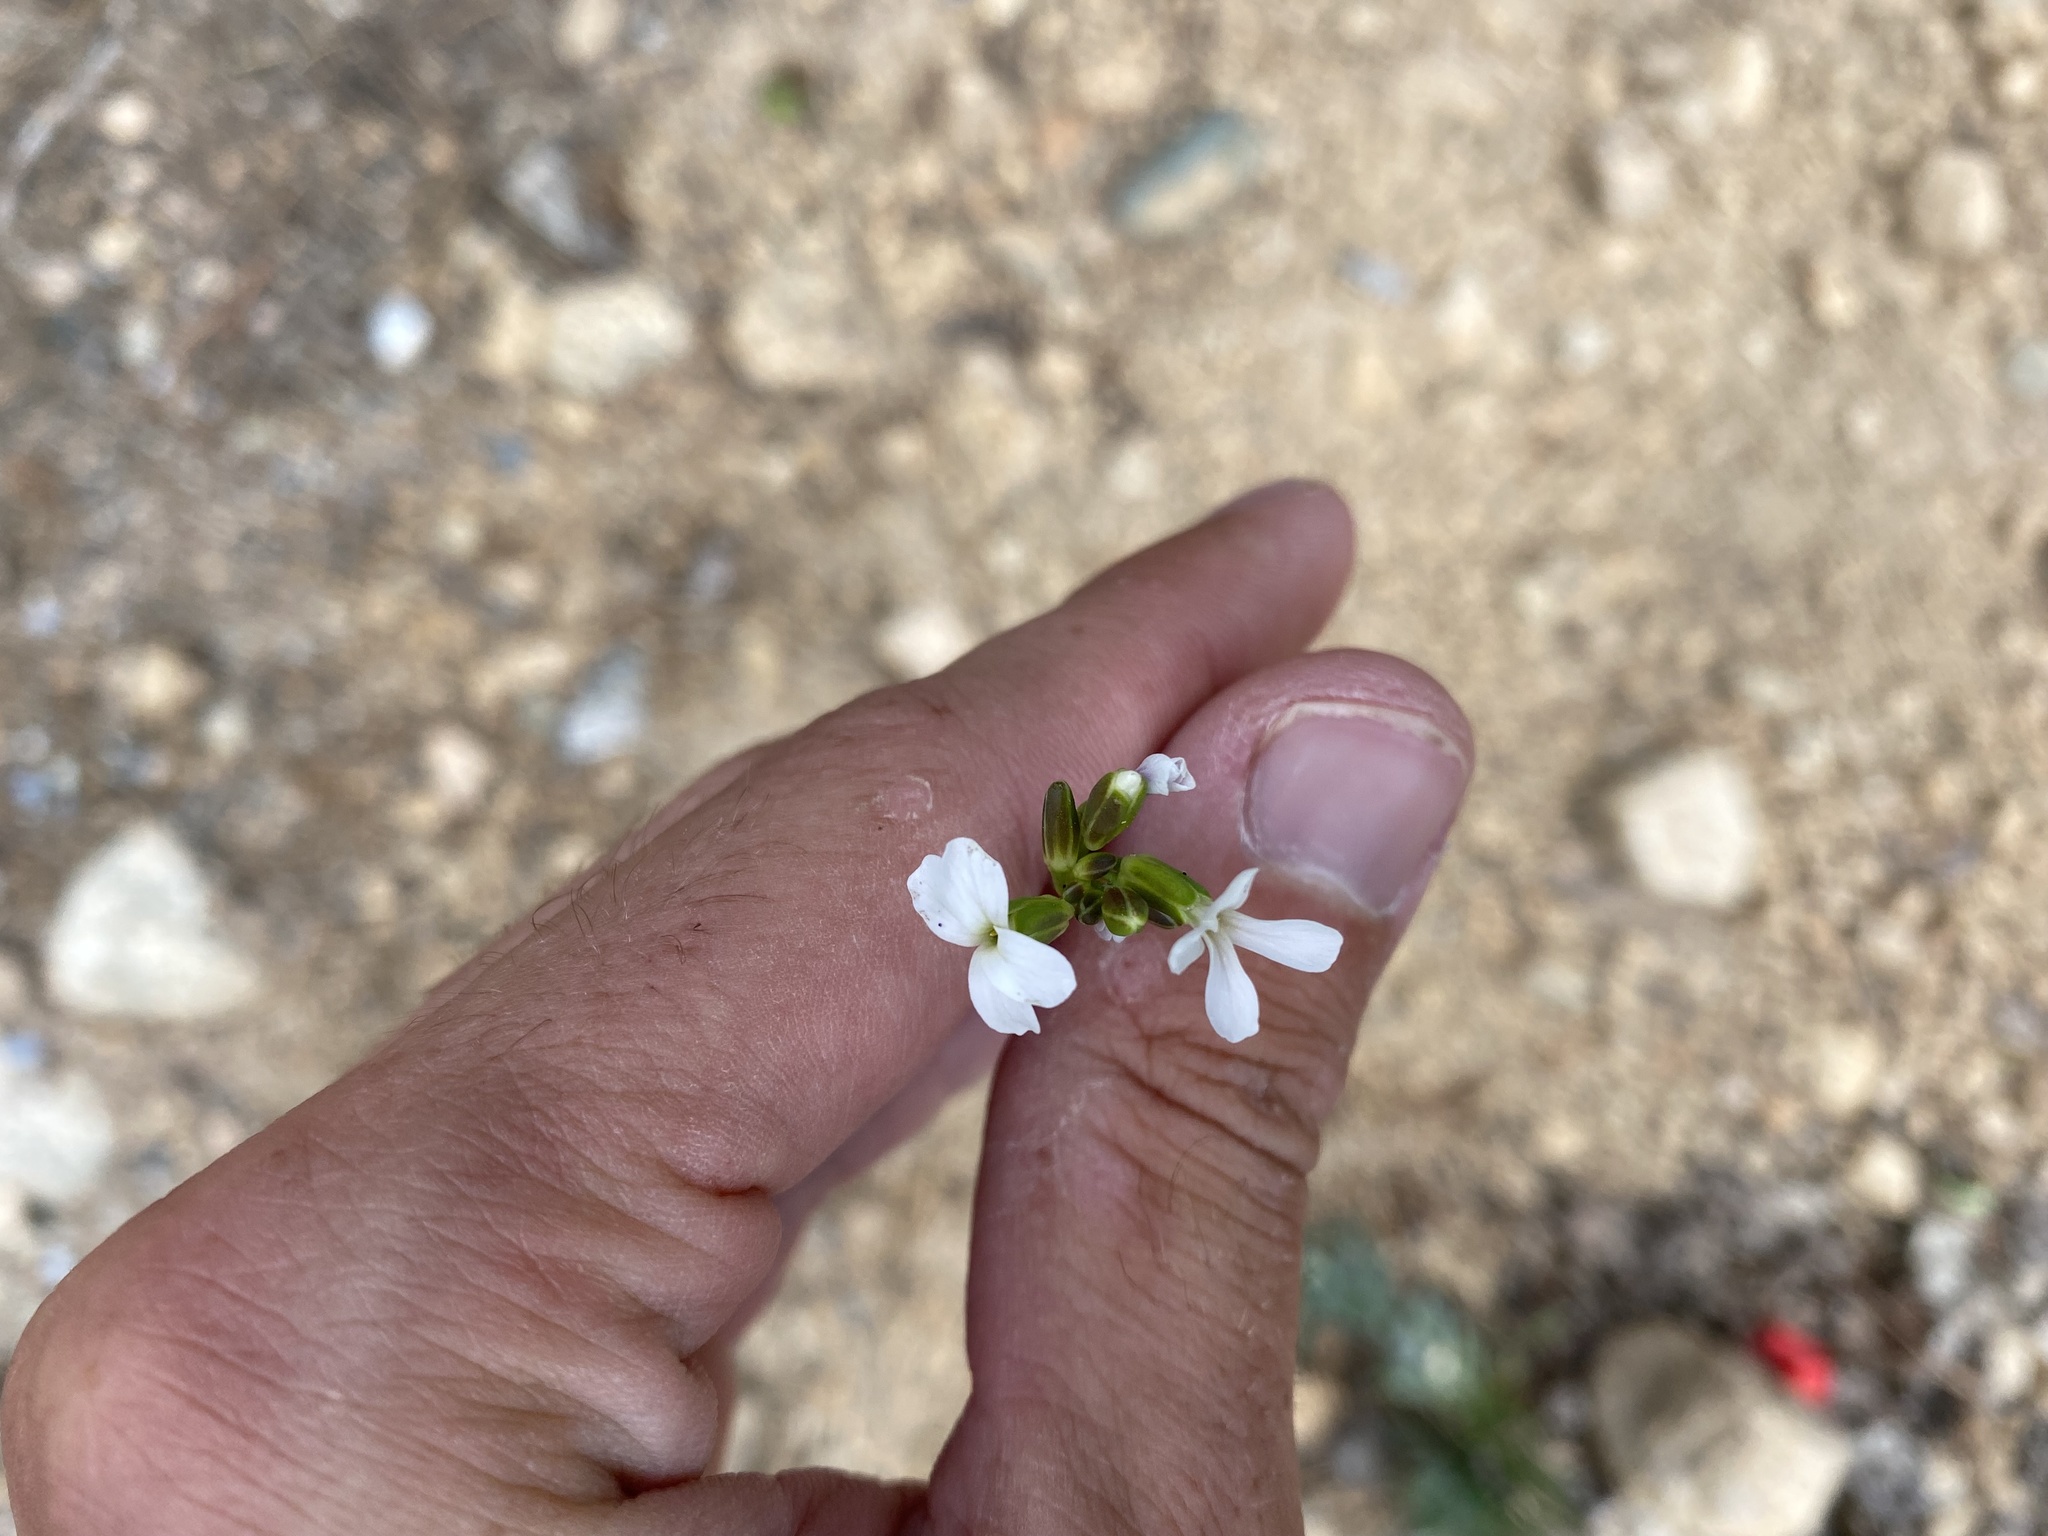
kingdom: Plantae
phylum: Tracheophyta
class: Magnoliopsida
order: Brassicales
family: Brassicaceae
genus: Boechera
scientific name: Boechera stricta
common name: Canadian rockcress
